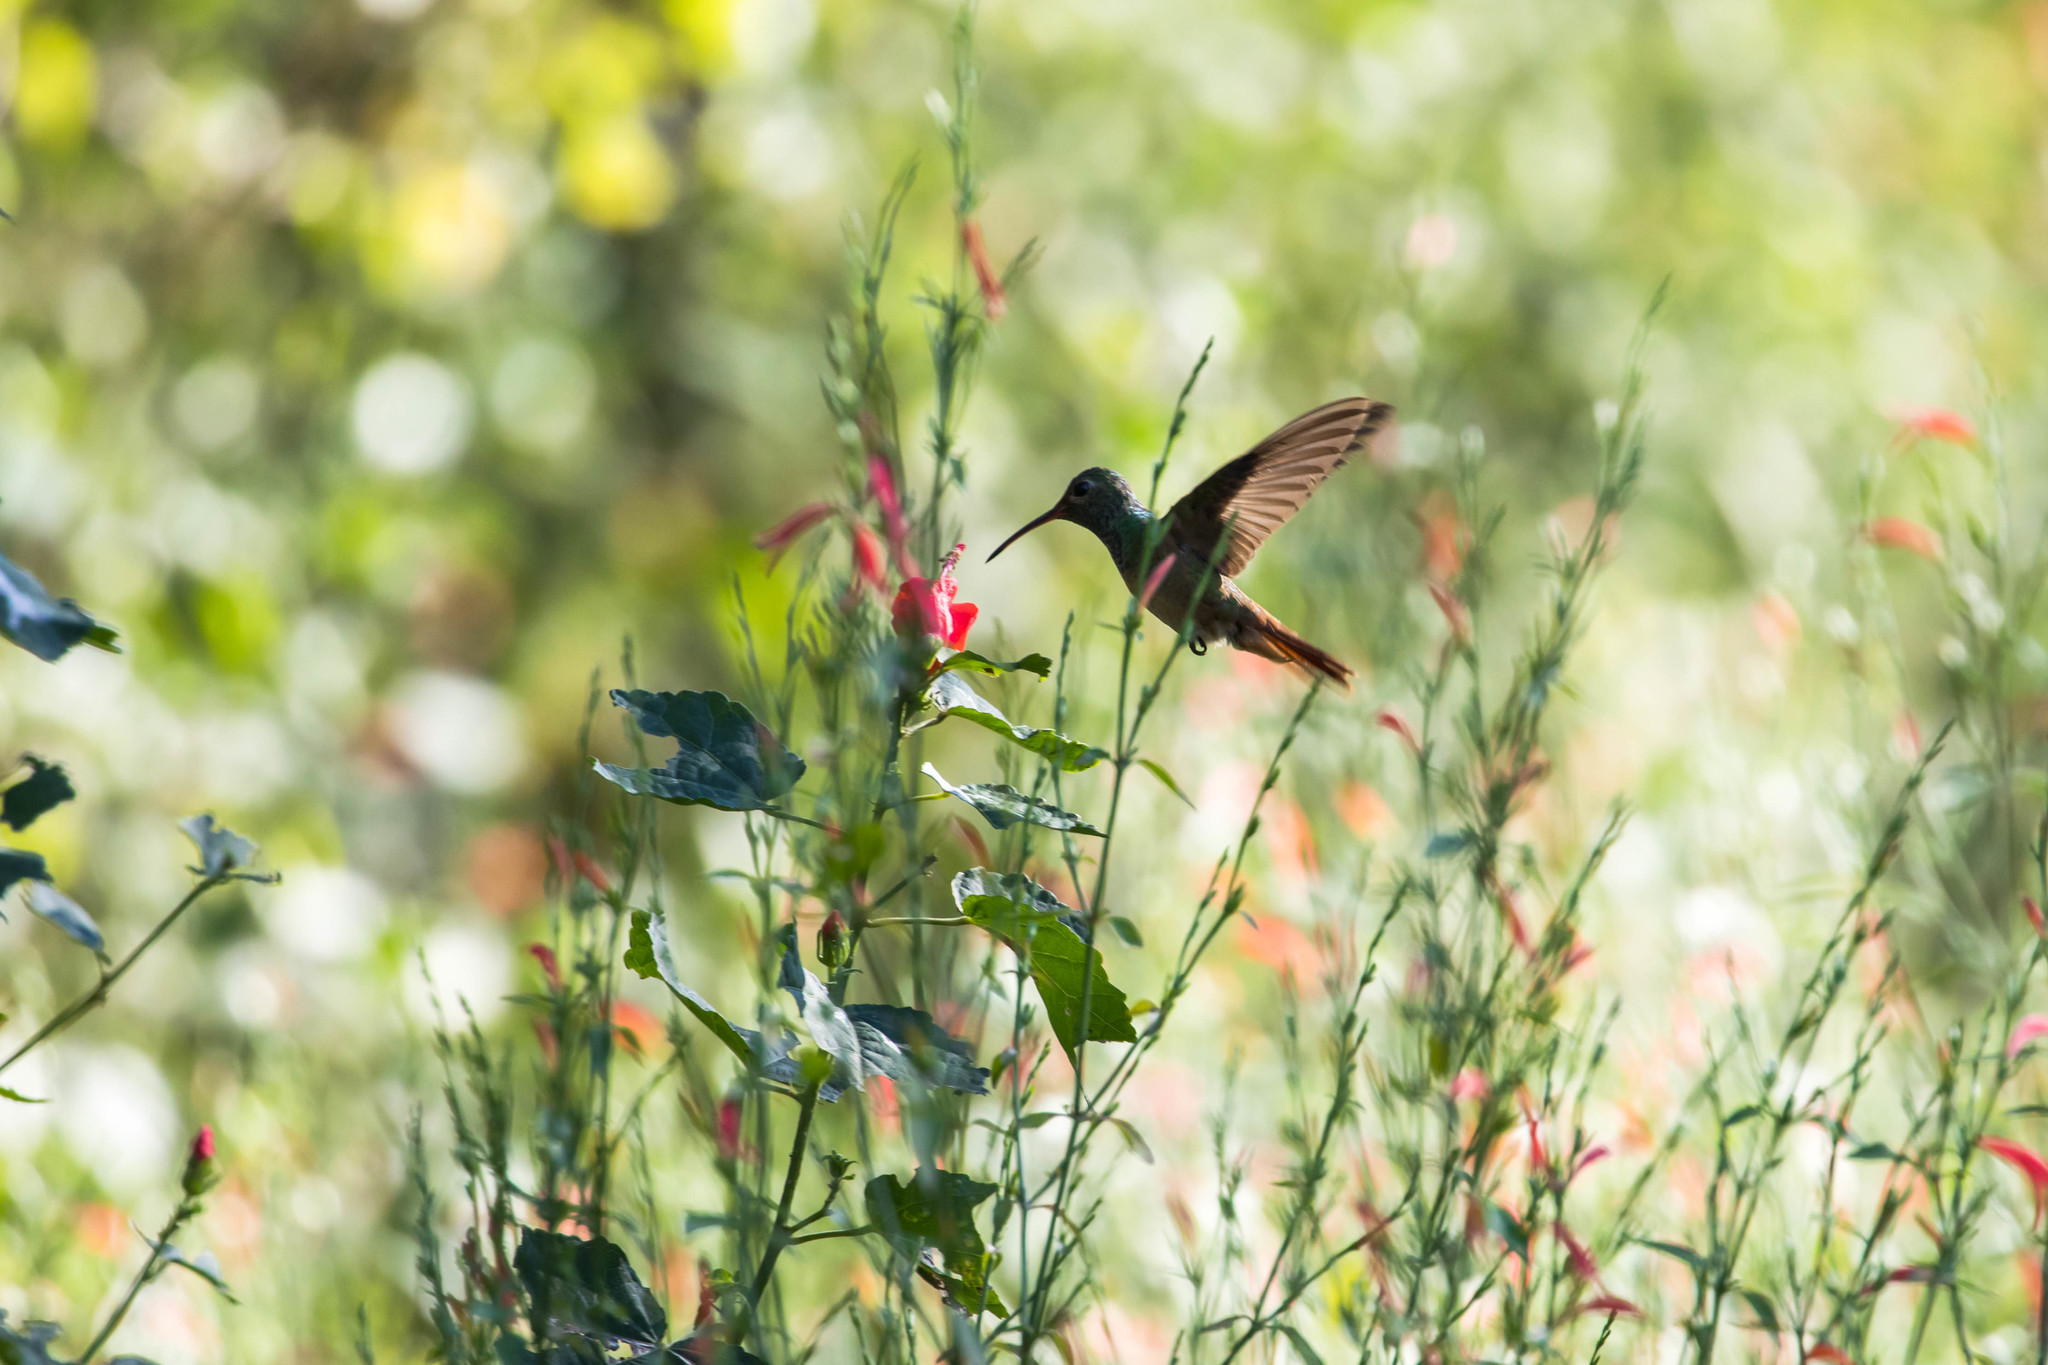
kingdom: Animalia
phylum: Chordata
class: Aves
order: Apodiformes
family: Trochilidae
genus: Amazilia
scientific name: Amazilia yucatanensis
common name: Buff-bellied hummingbird
